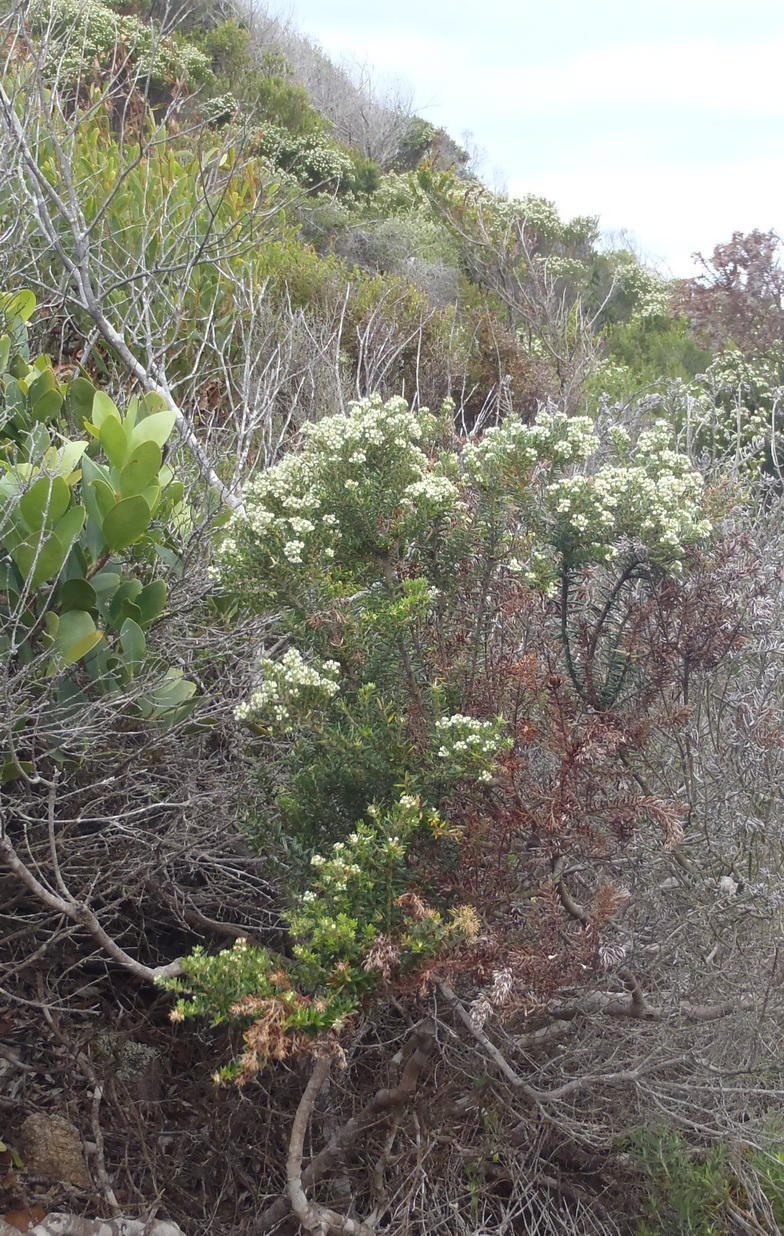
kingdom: Plantae
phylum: Tracheophyta
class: Magnoliopsida
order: Rosales
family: Rhamnaceae
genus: Phylica
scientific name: Phylica axillaris
